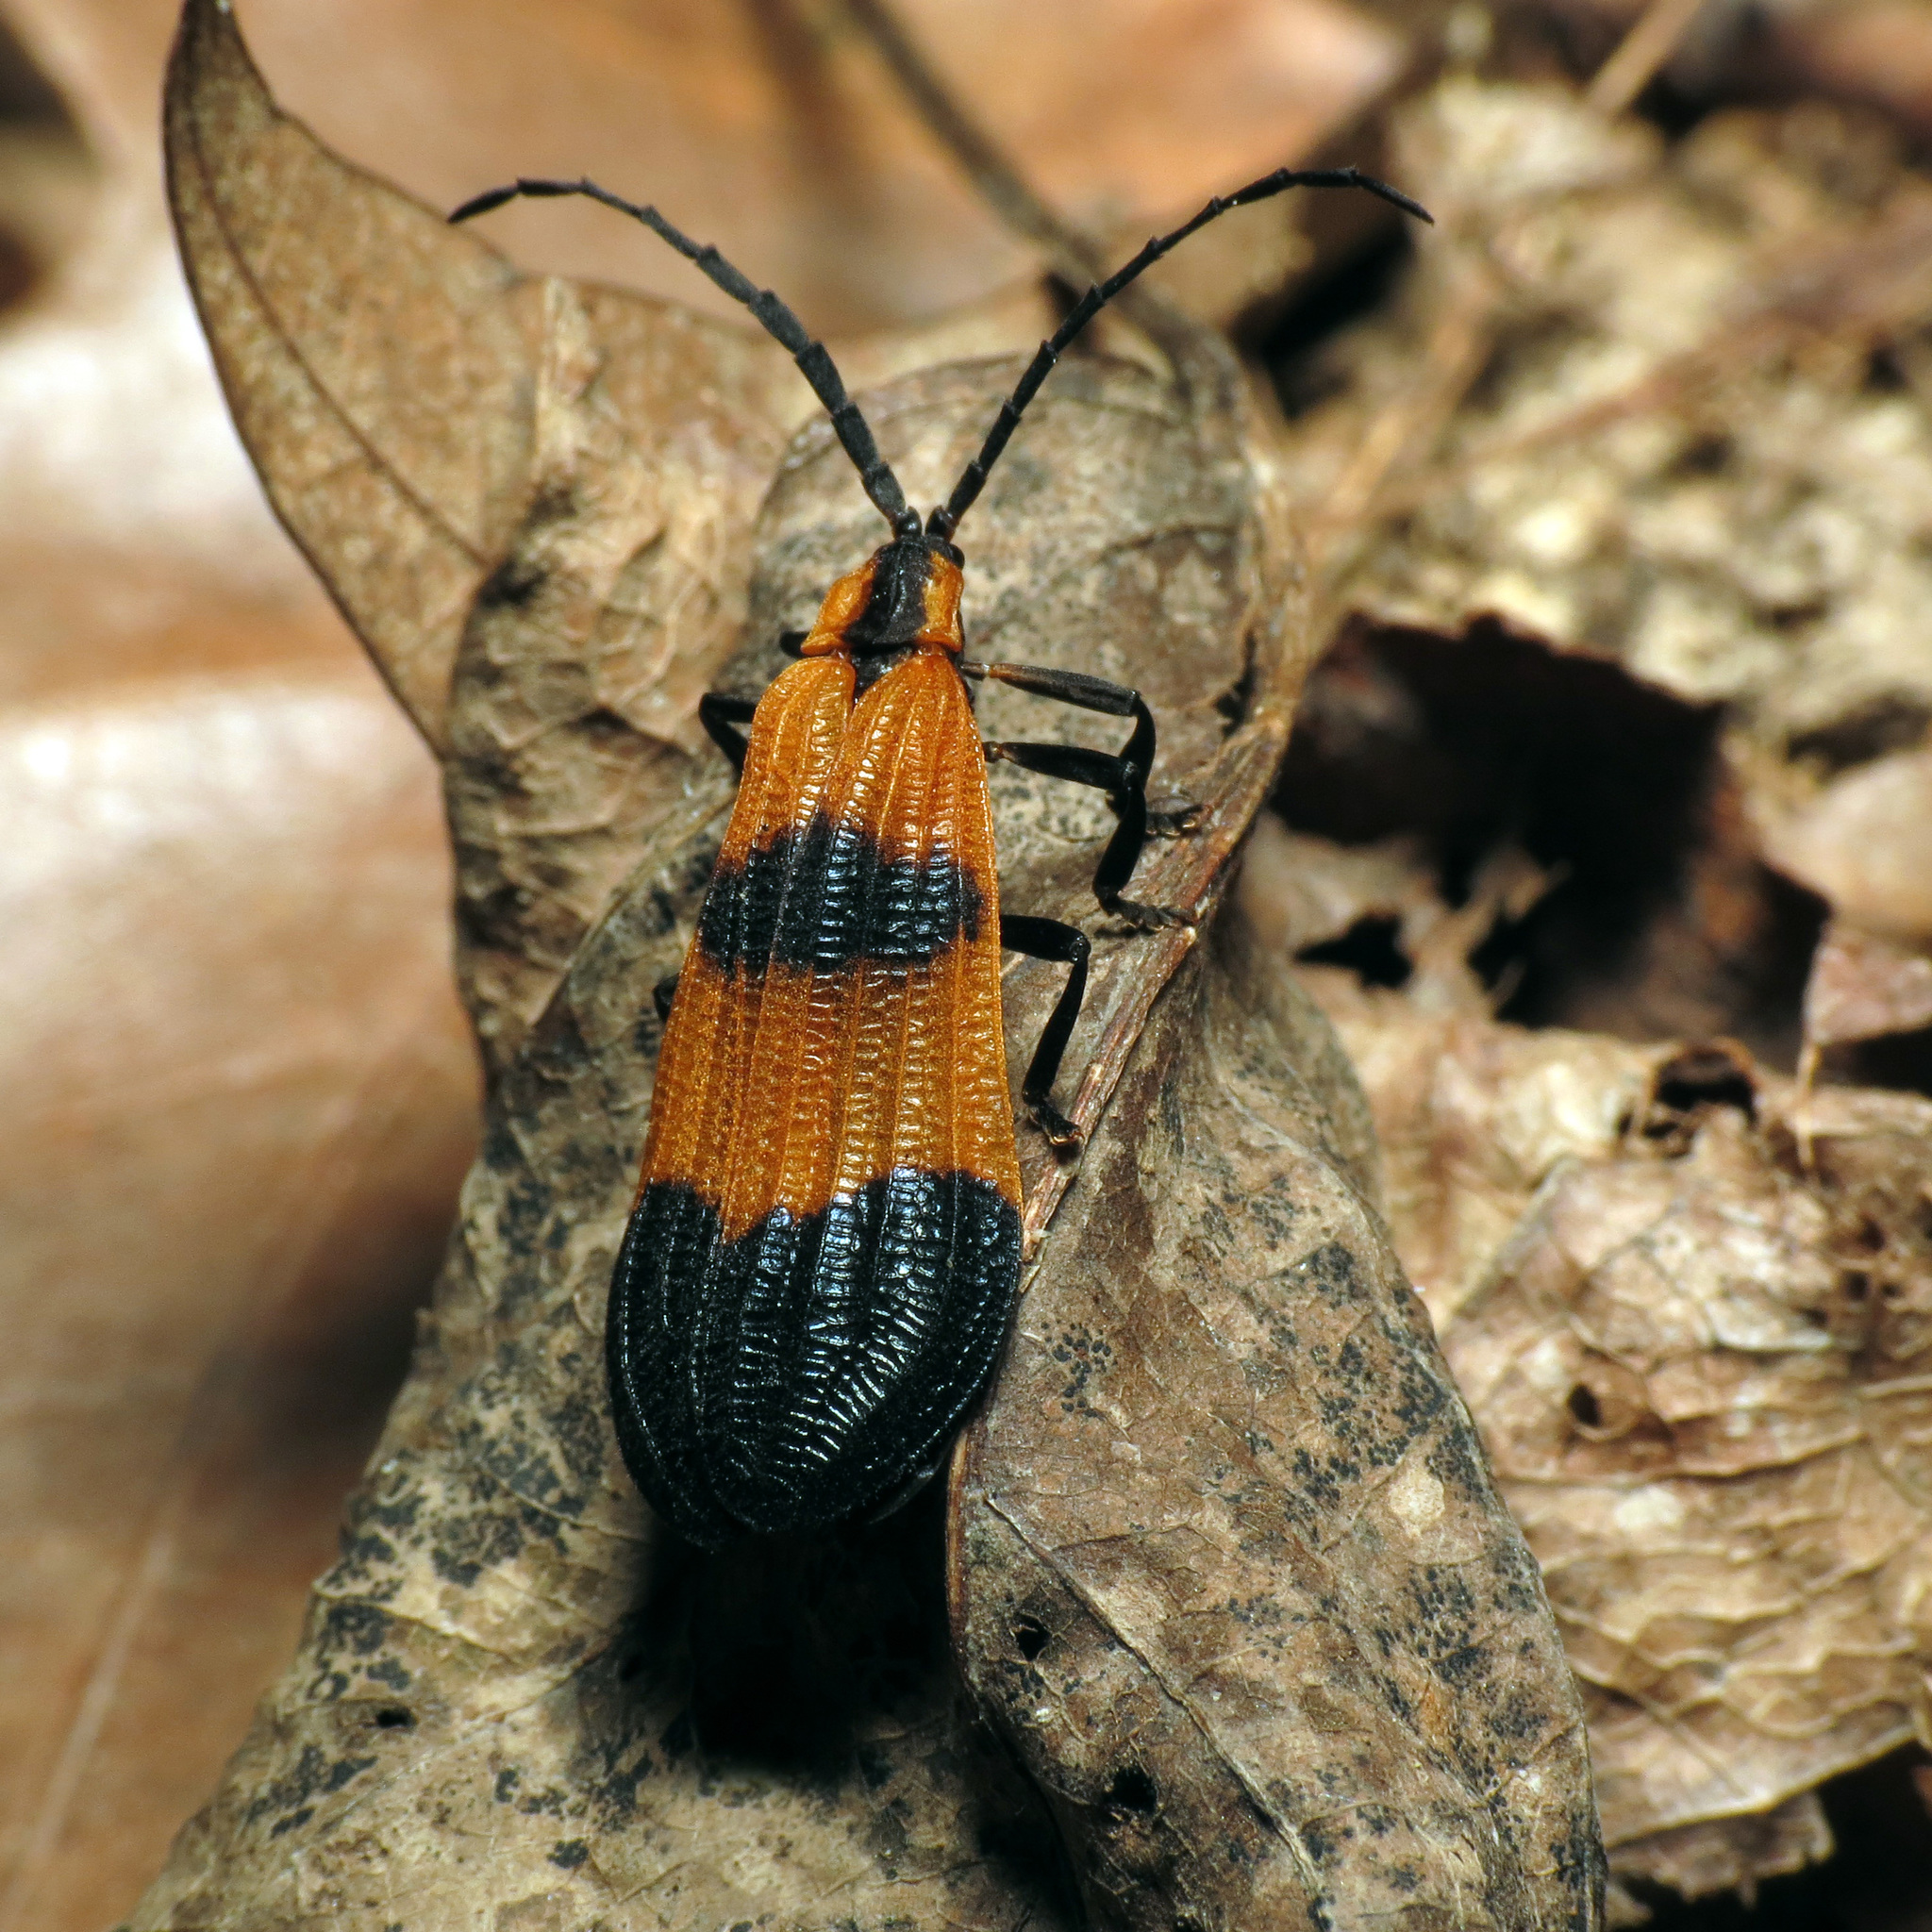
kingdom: Animalia
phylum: Arthropoda
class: Insecta
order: Coleoptera
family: Lycidae
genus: Calopteron
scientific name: Calopteron terminale
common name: End band net-winged beetle
